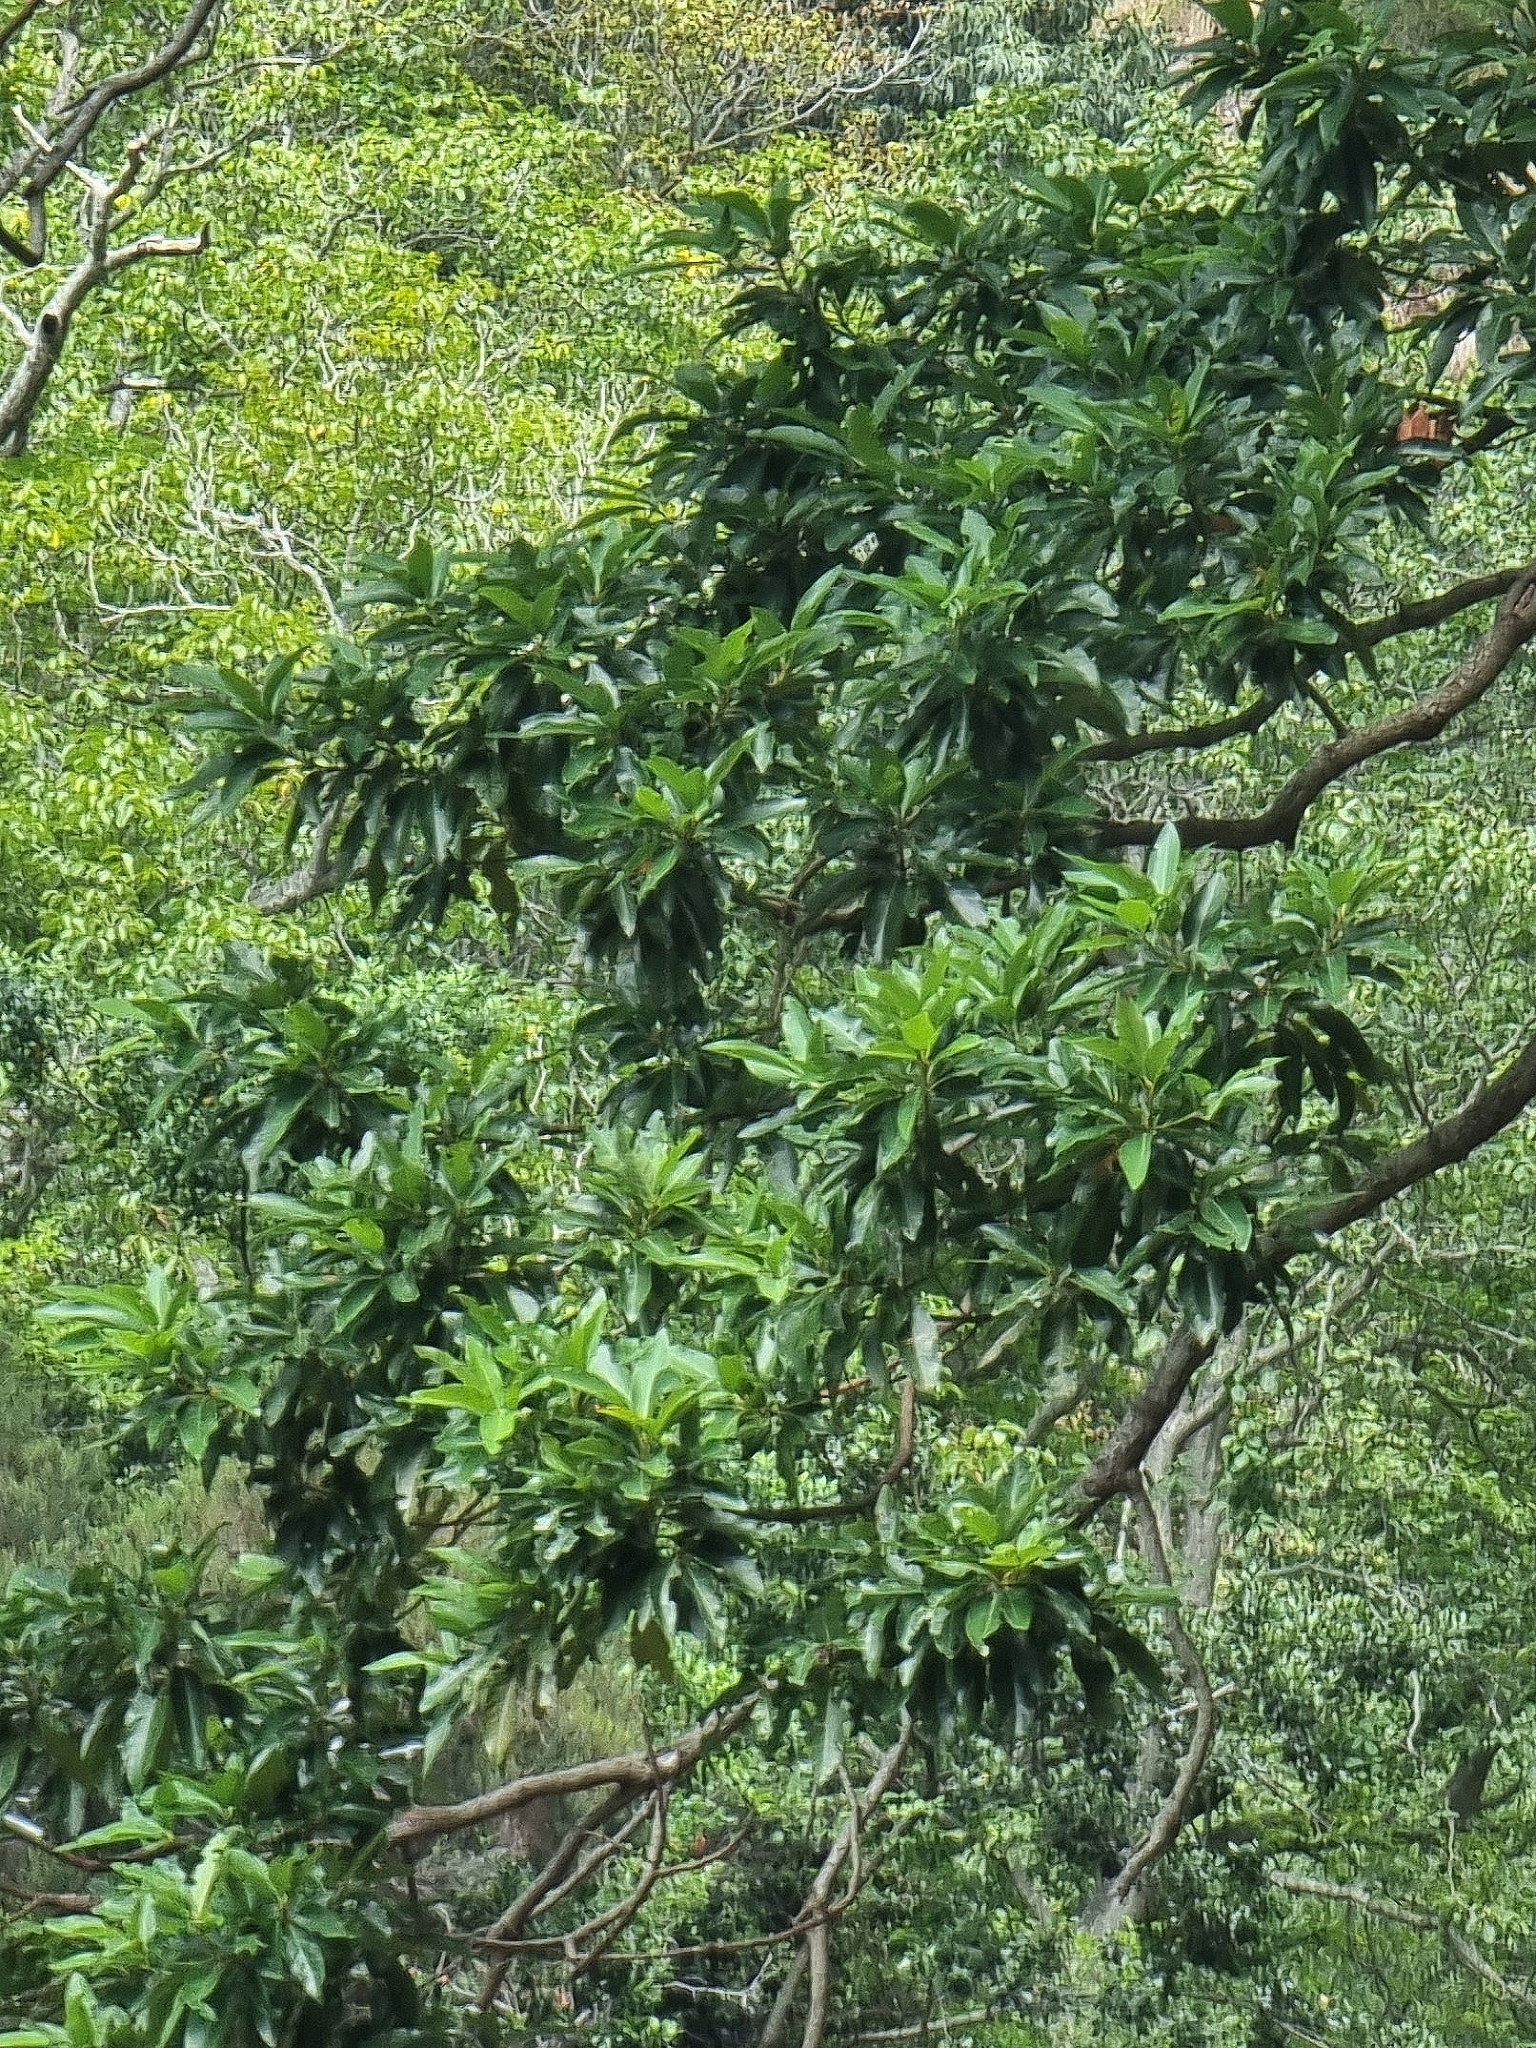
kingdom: Plantae
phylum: Tracheophyta
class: Magnoliopsida
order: Laurales
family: Lauraceae
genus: Persea
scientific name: Persea indica
